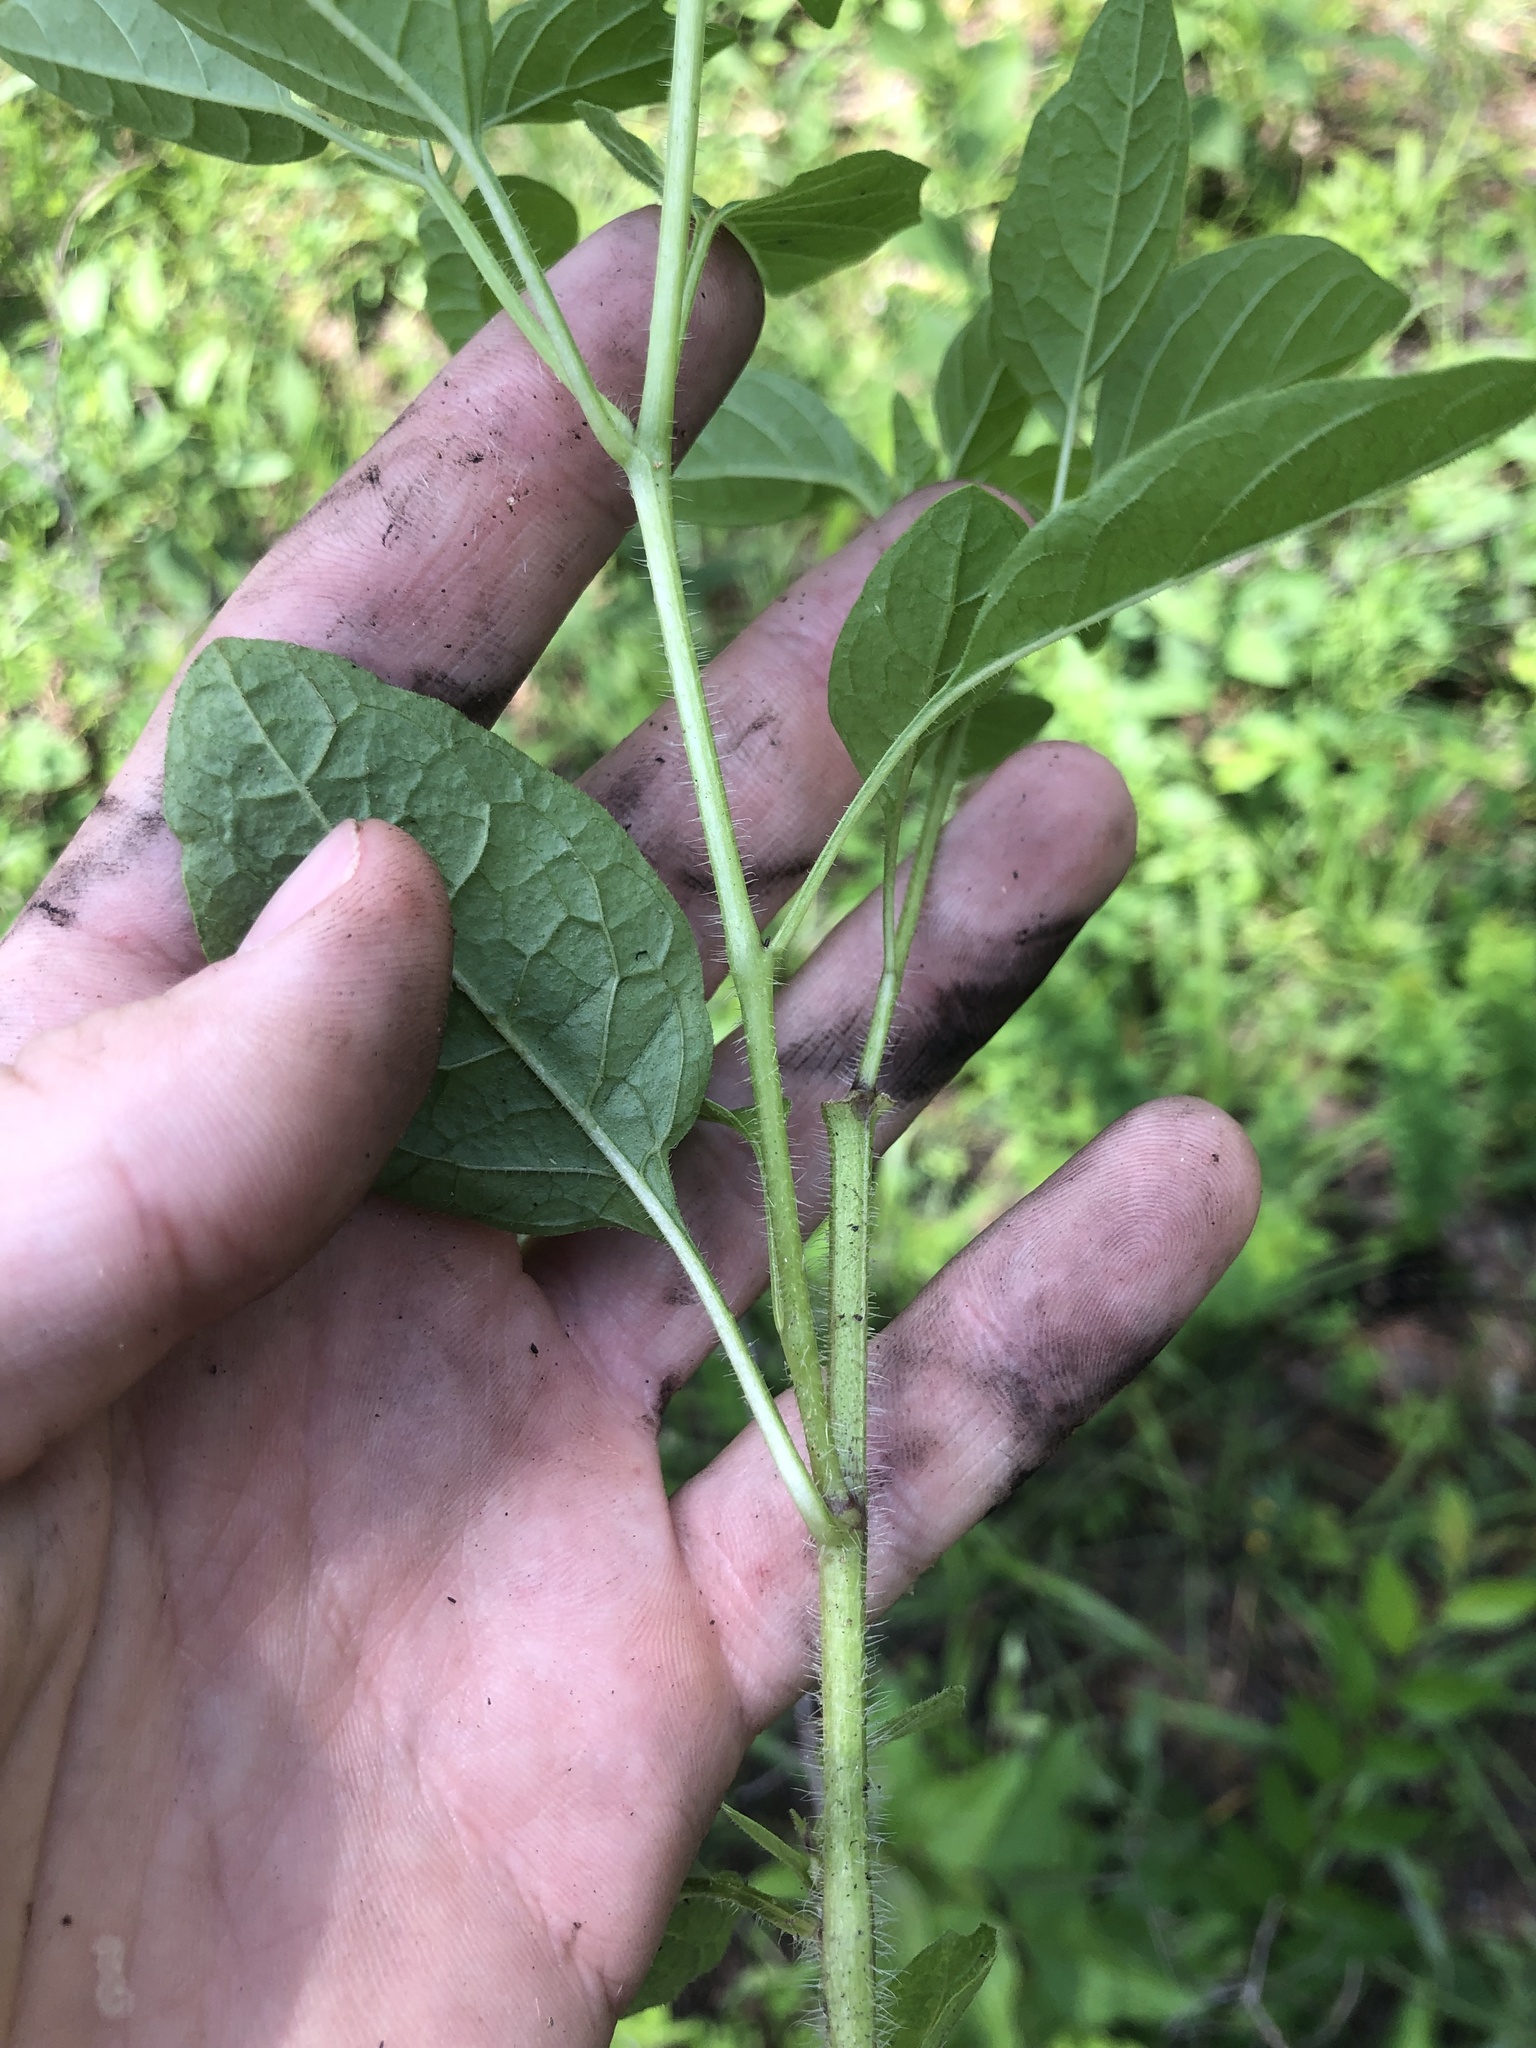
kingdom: Plantae
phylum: Tracheophyta
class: Magnoliopsida
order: Solanales
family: Solanaceae
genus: Physalis
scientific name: Physalis virginiana
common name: Virginia ground-cherry
